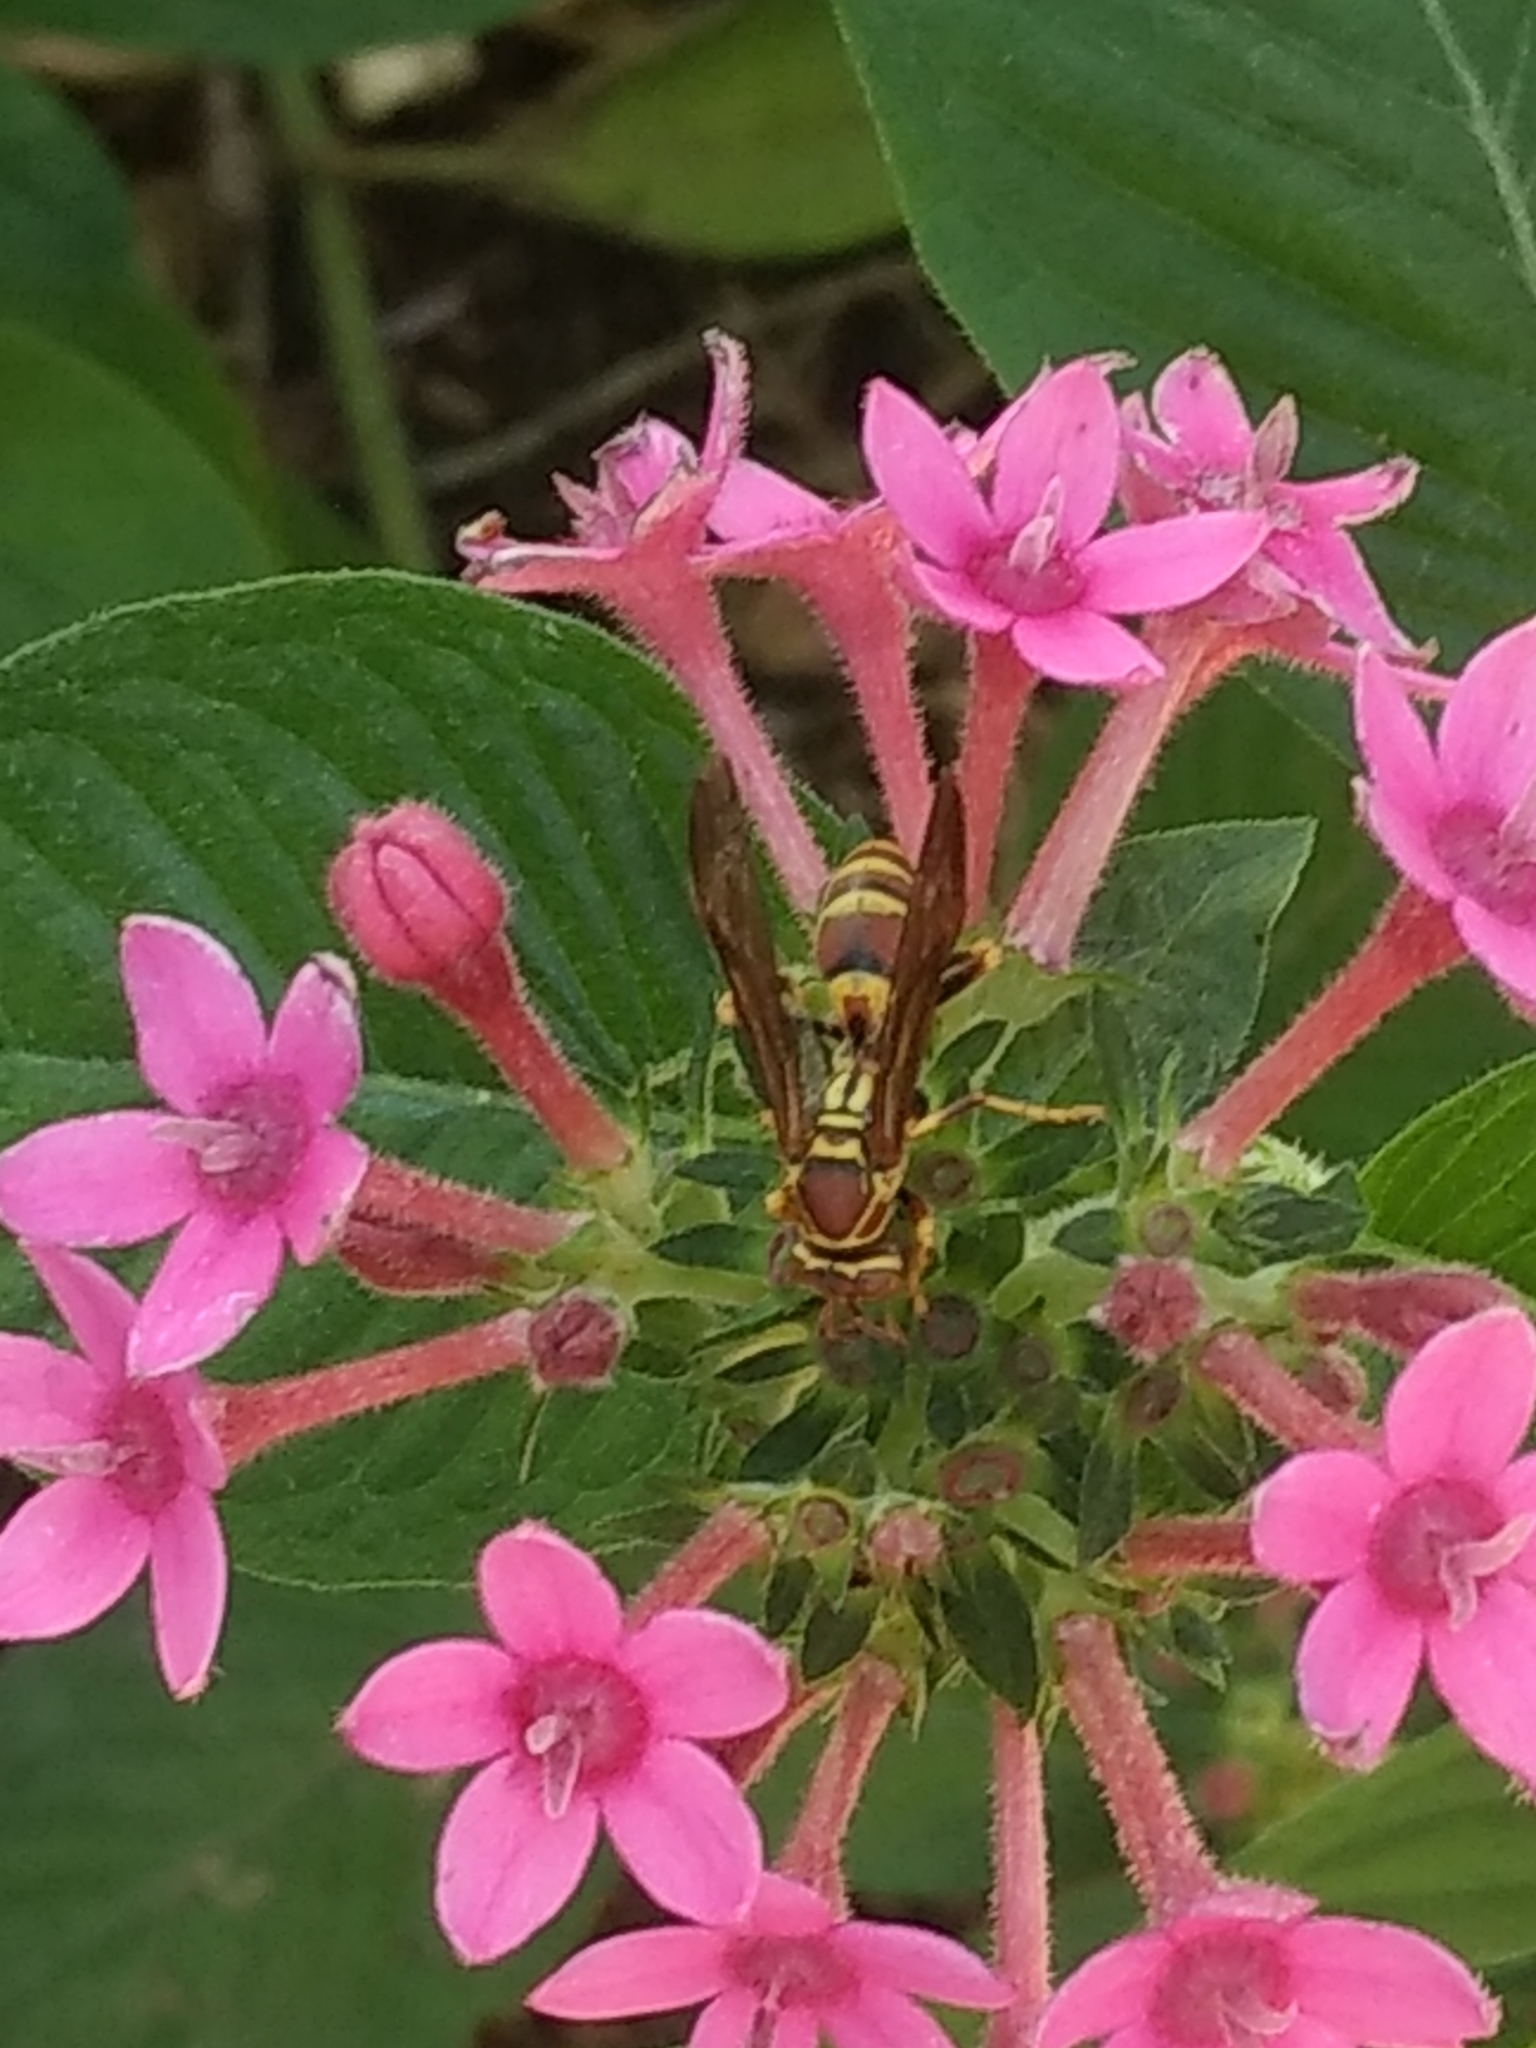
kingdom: Animalia
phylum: Arthropoda
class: Insecta
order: Hymenoptera
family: Eumenidae
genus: Polistes
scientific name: Polistes exclamans
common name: Paper wasp
